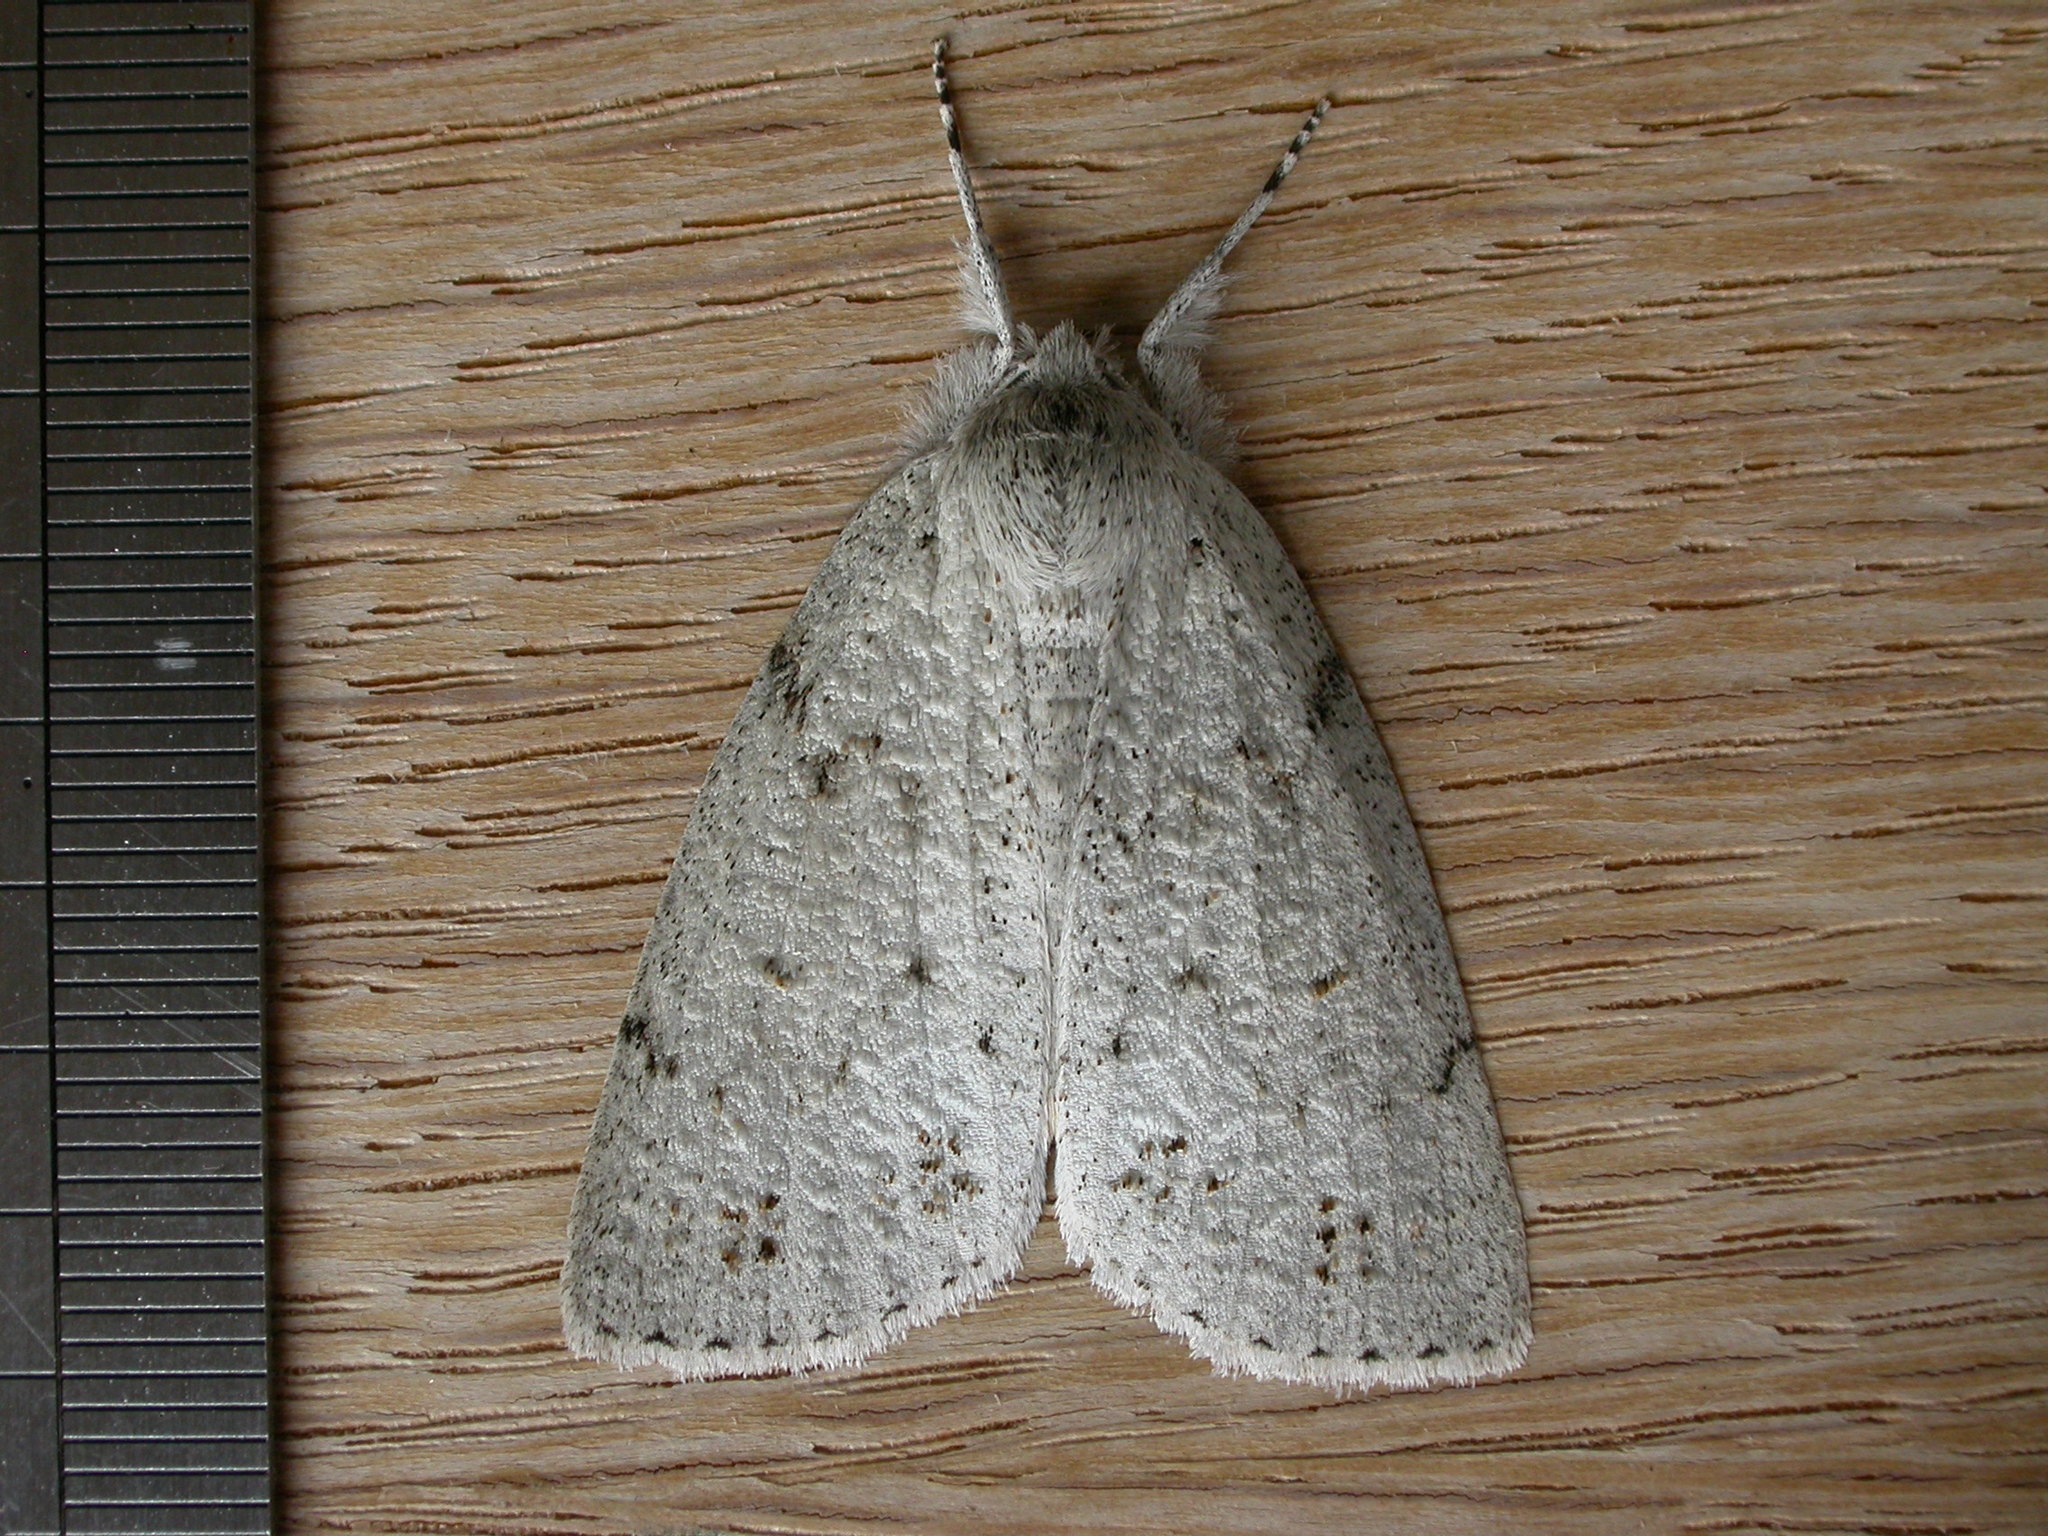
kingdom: Animalia
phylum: Arthropoda
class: Insecta
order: Lepidoptera
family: Geometridae
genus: Mochlotona
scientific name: Mochlotona phasmatias
